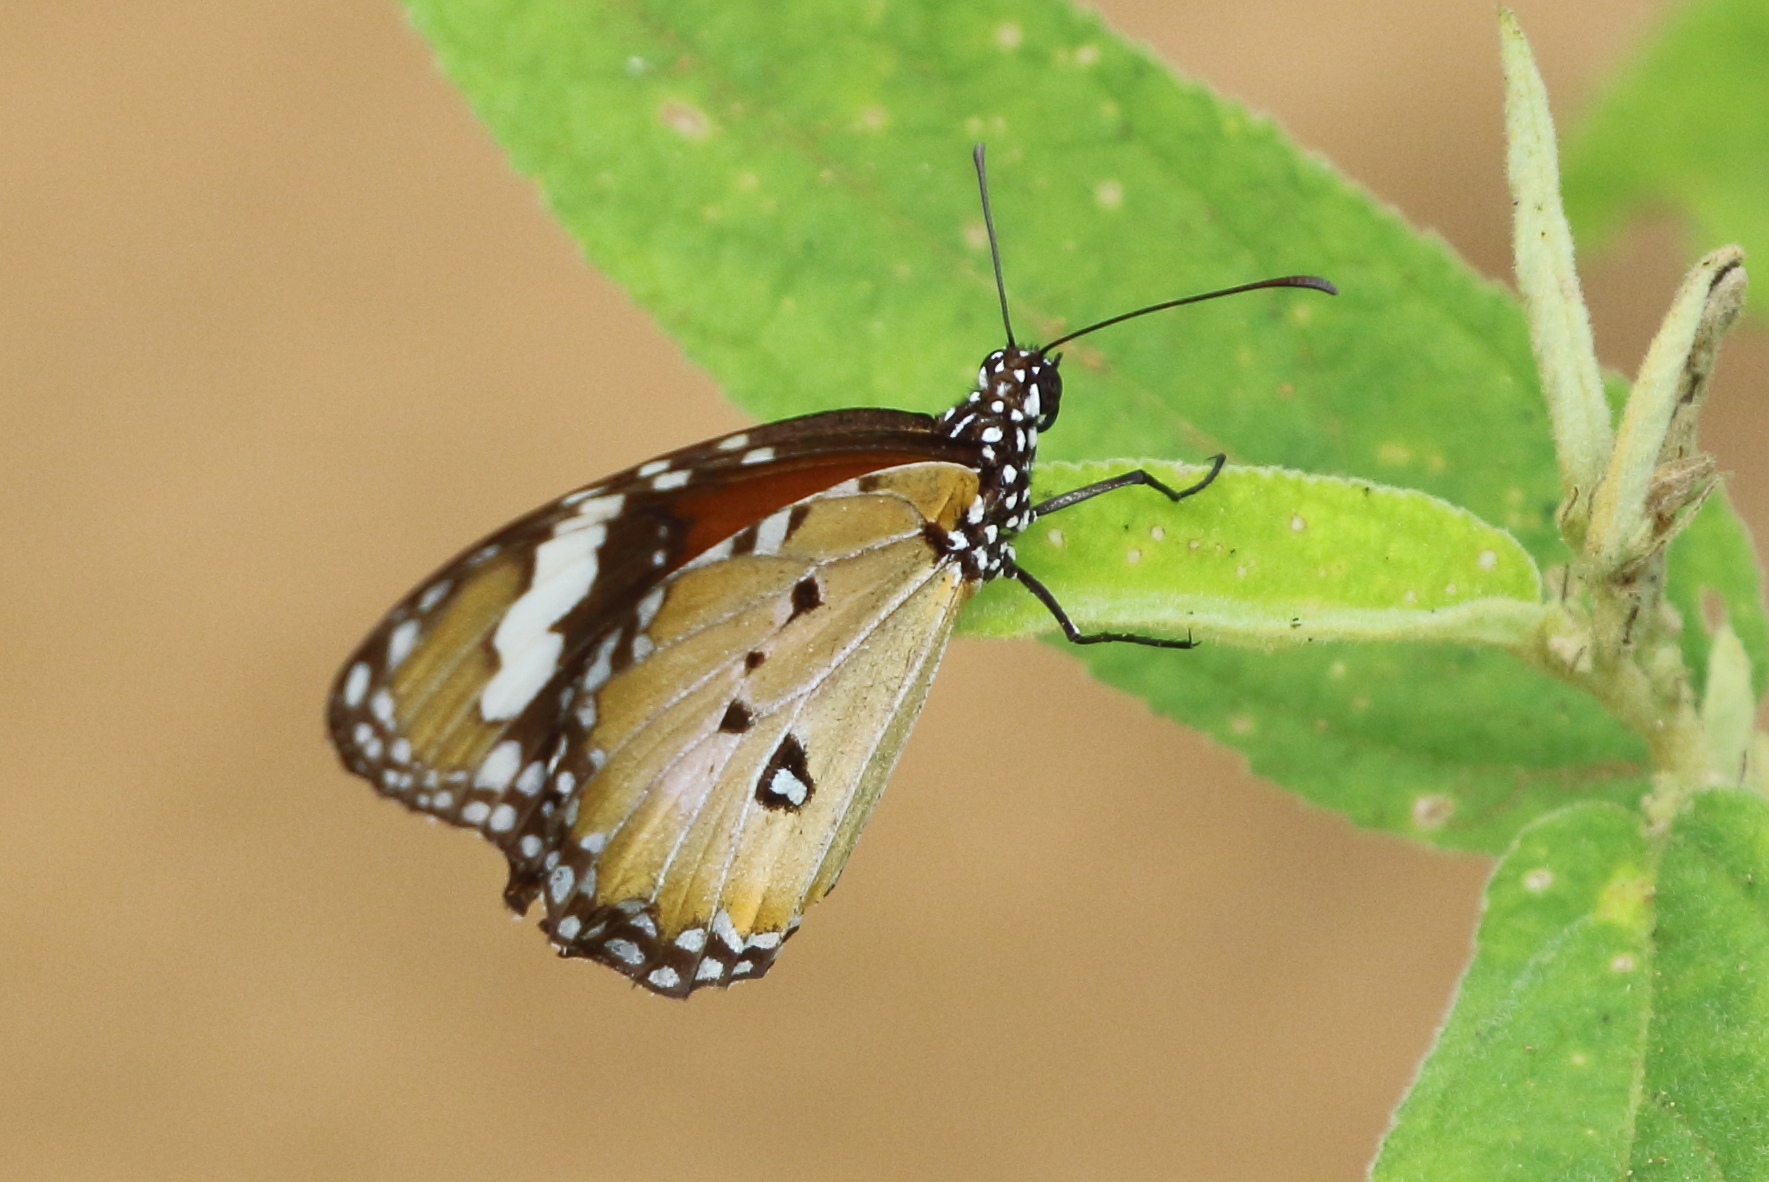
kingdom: Animalia
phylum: Arthropoda
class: Insecta
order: Lepidoptera
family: Nymphalidae
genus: Danaus
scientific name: Danaus chrysippus
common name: Plain tiger
